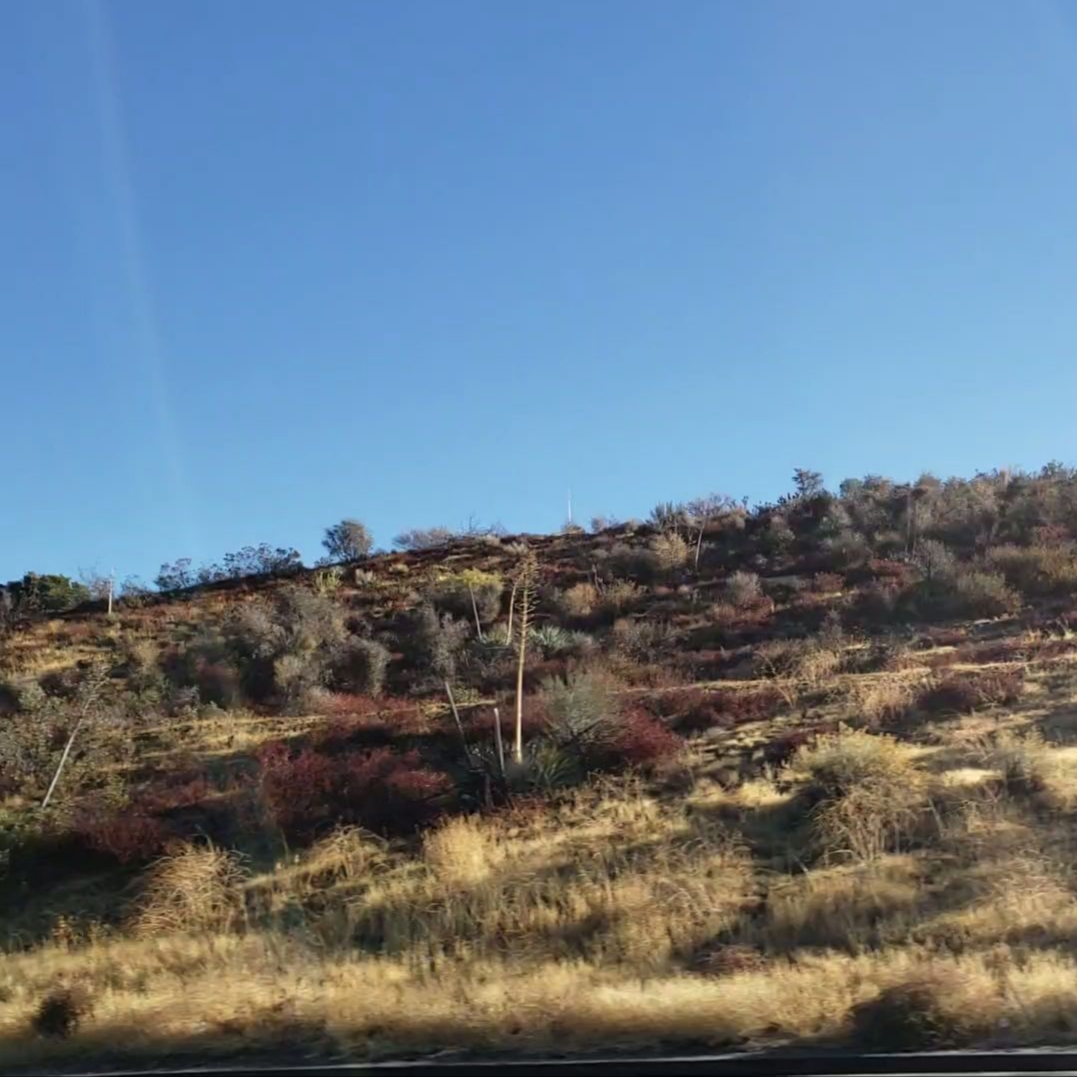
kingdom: Plantae
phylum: Tracheophyta
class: Liliopsida
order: Asparagales
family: Asparagaceae
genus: Hesperoyucca
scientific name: Hesperoyucca whipplei
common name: Our lord's-candle
